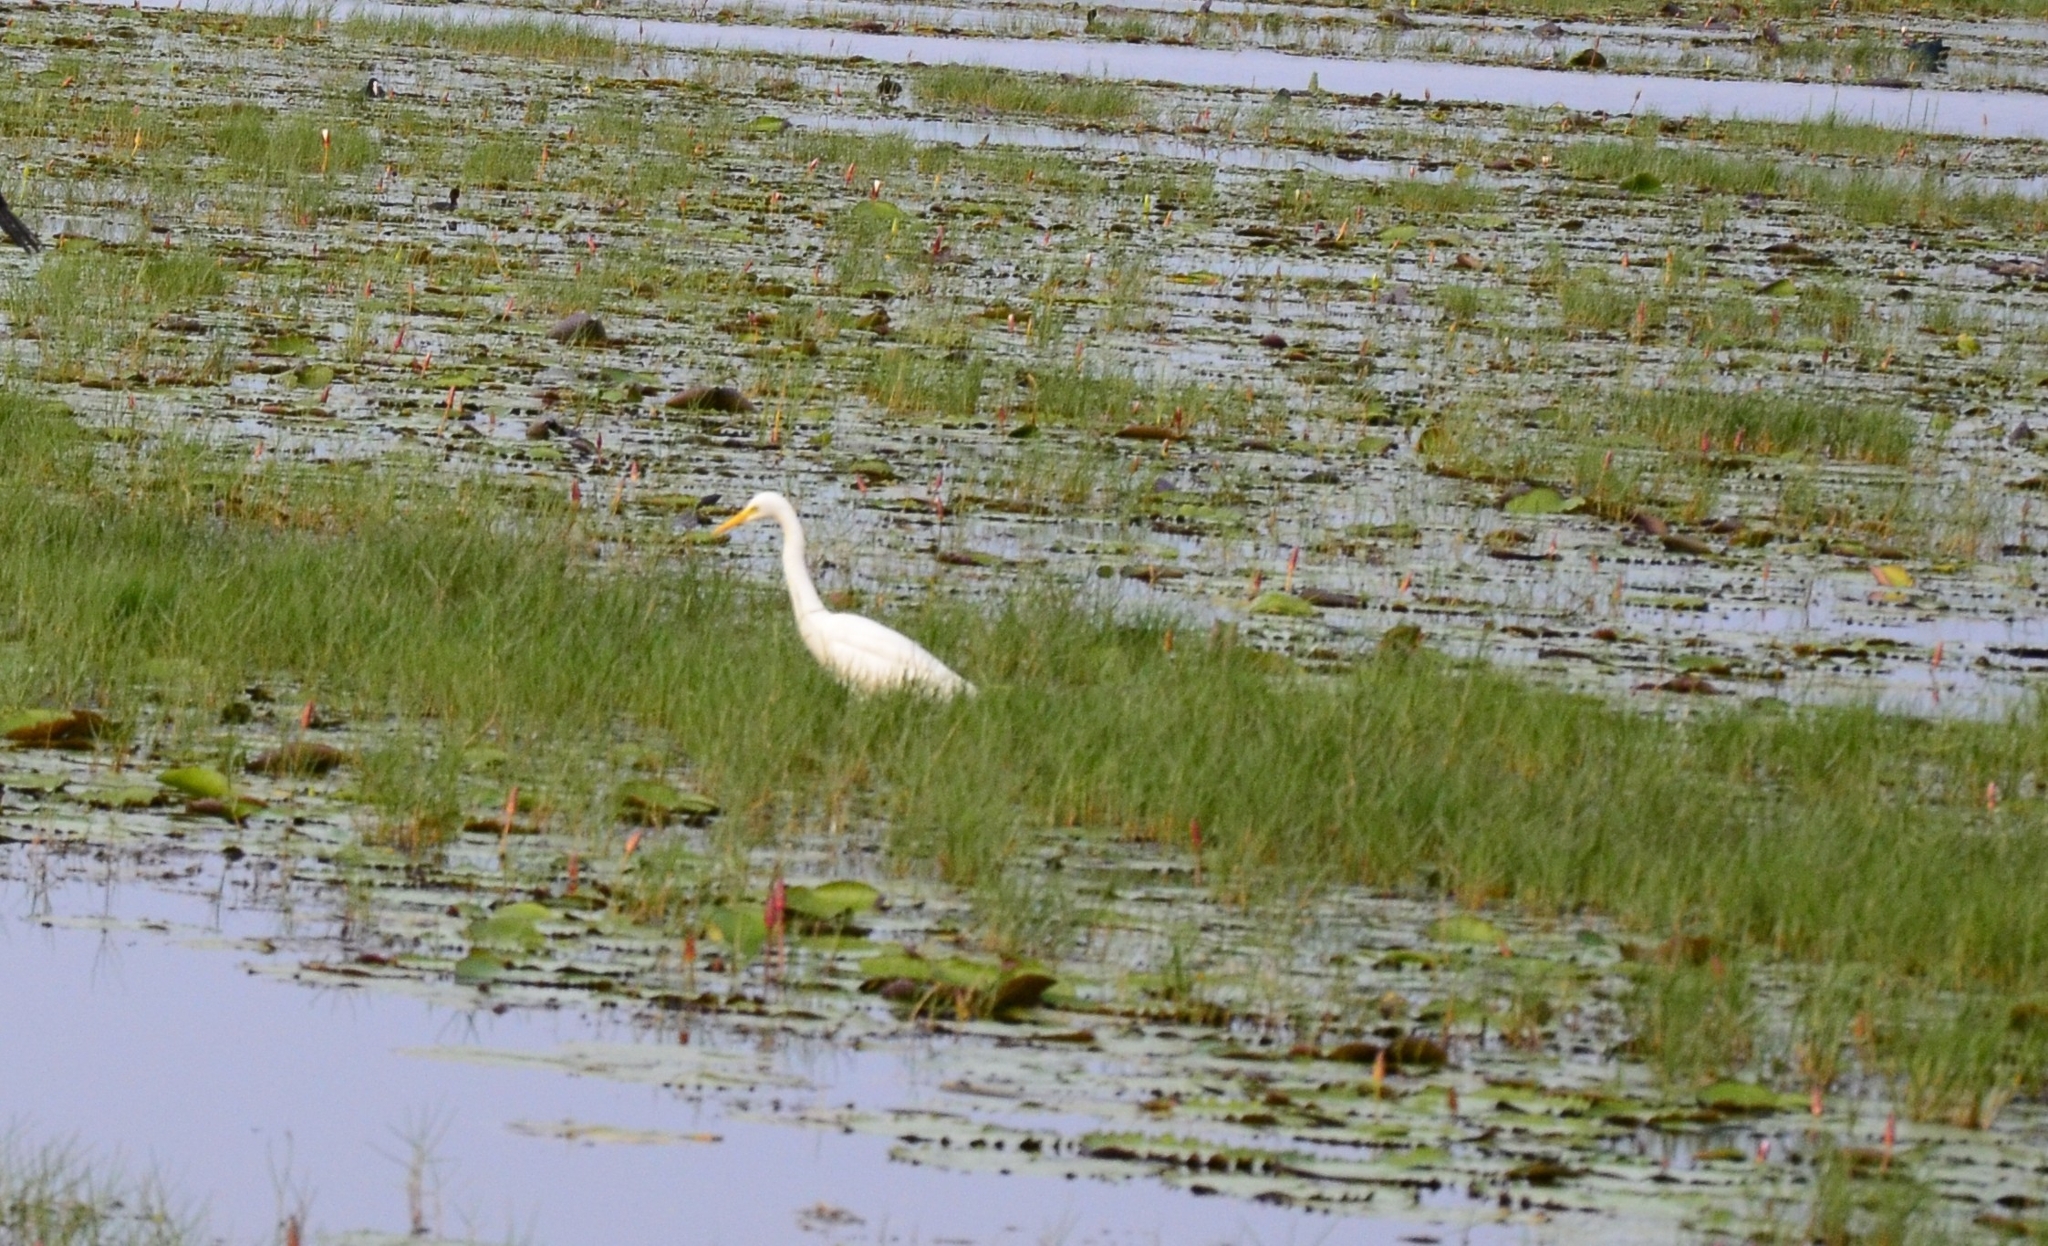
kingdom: Animalia
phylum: Chordata
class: Aves
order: Pelecaniformes
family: Ardeidae
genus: Egretta
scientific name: Egretta intermedia
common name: Intermediate egret
